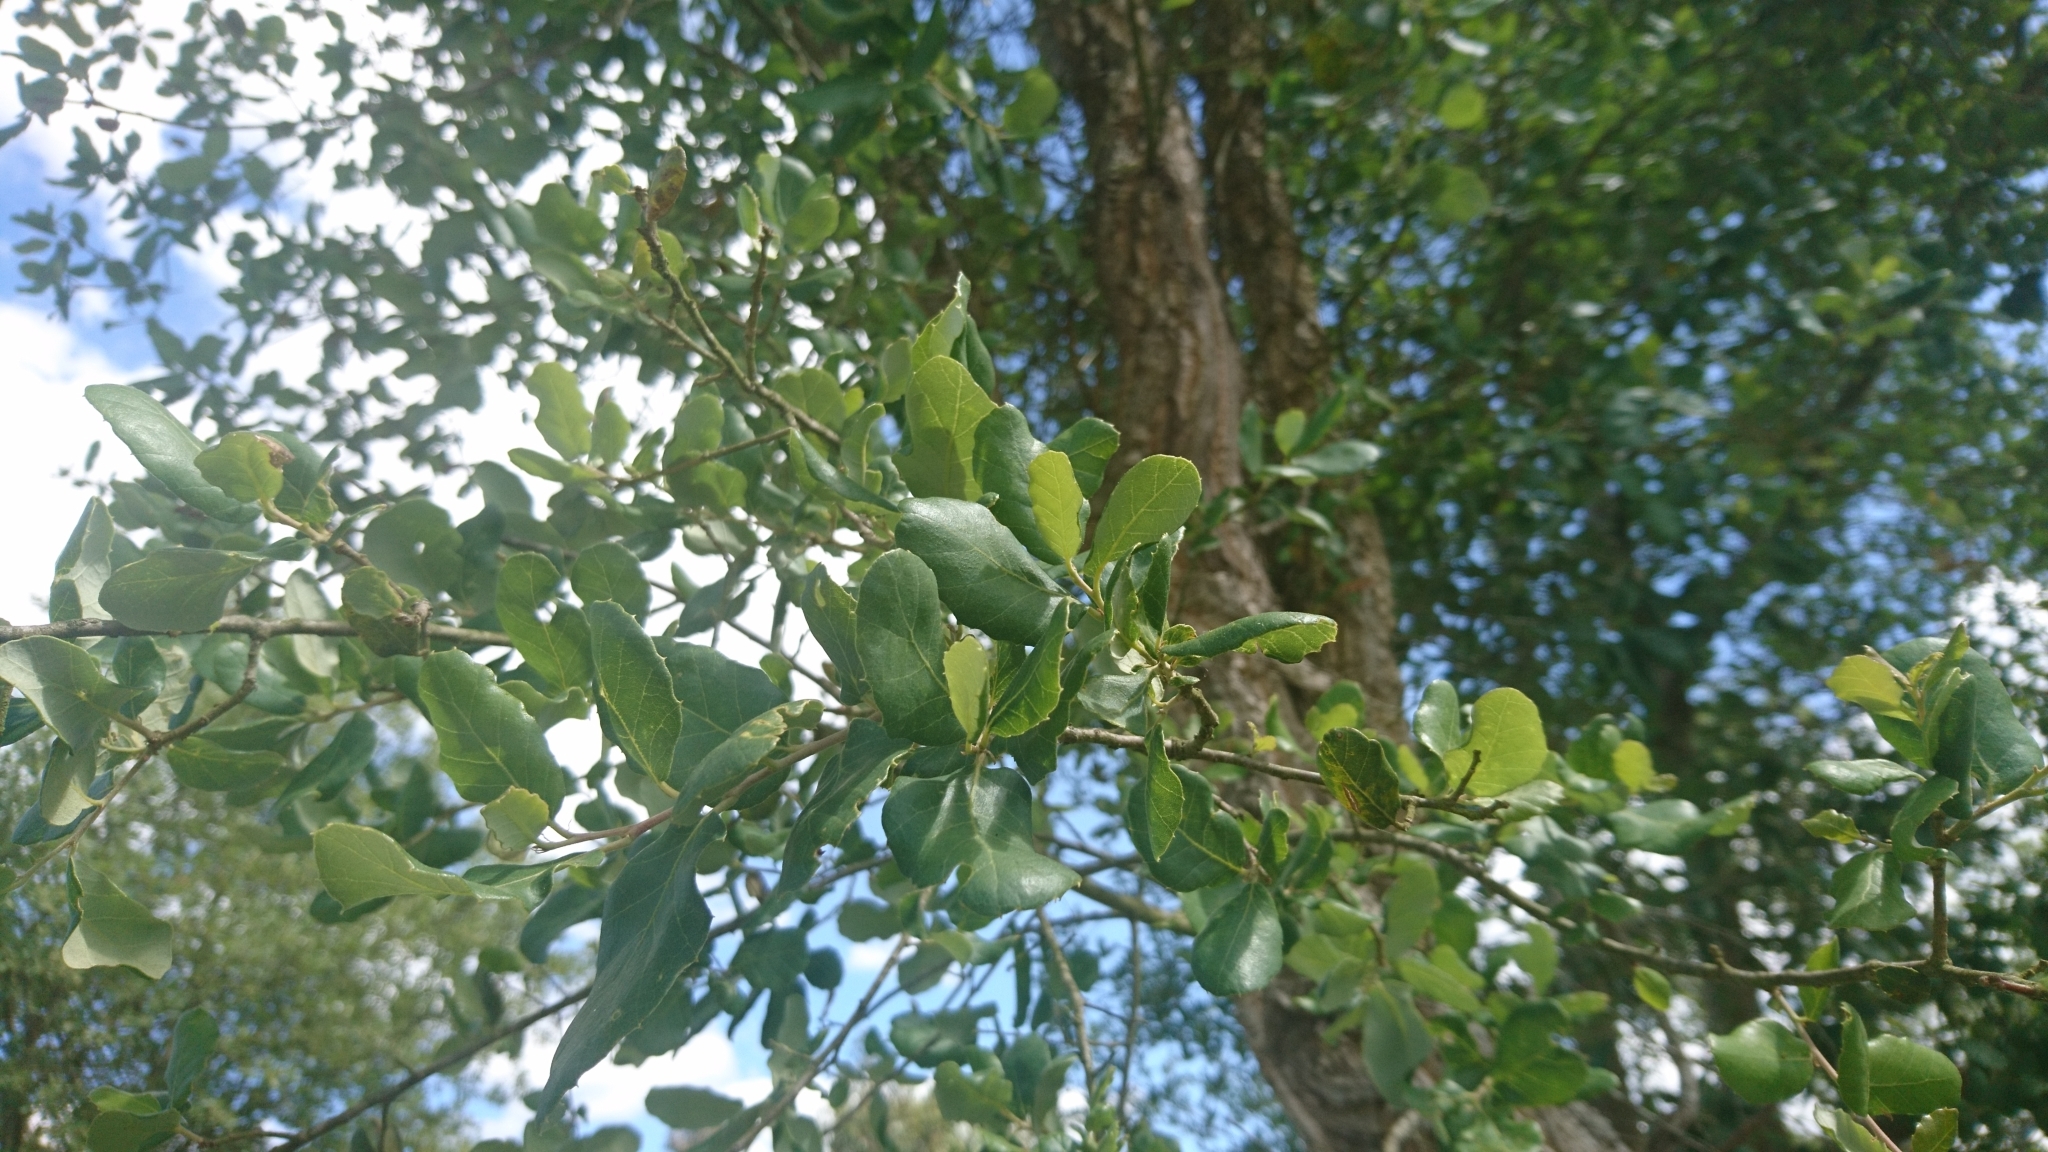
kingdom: Plantae
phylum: Tracheophyta
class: Magnoliopsida
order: Fagales
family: Fagaceae
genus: Quercus
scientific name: Quercus suber
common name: Cork oak
